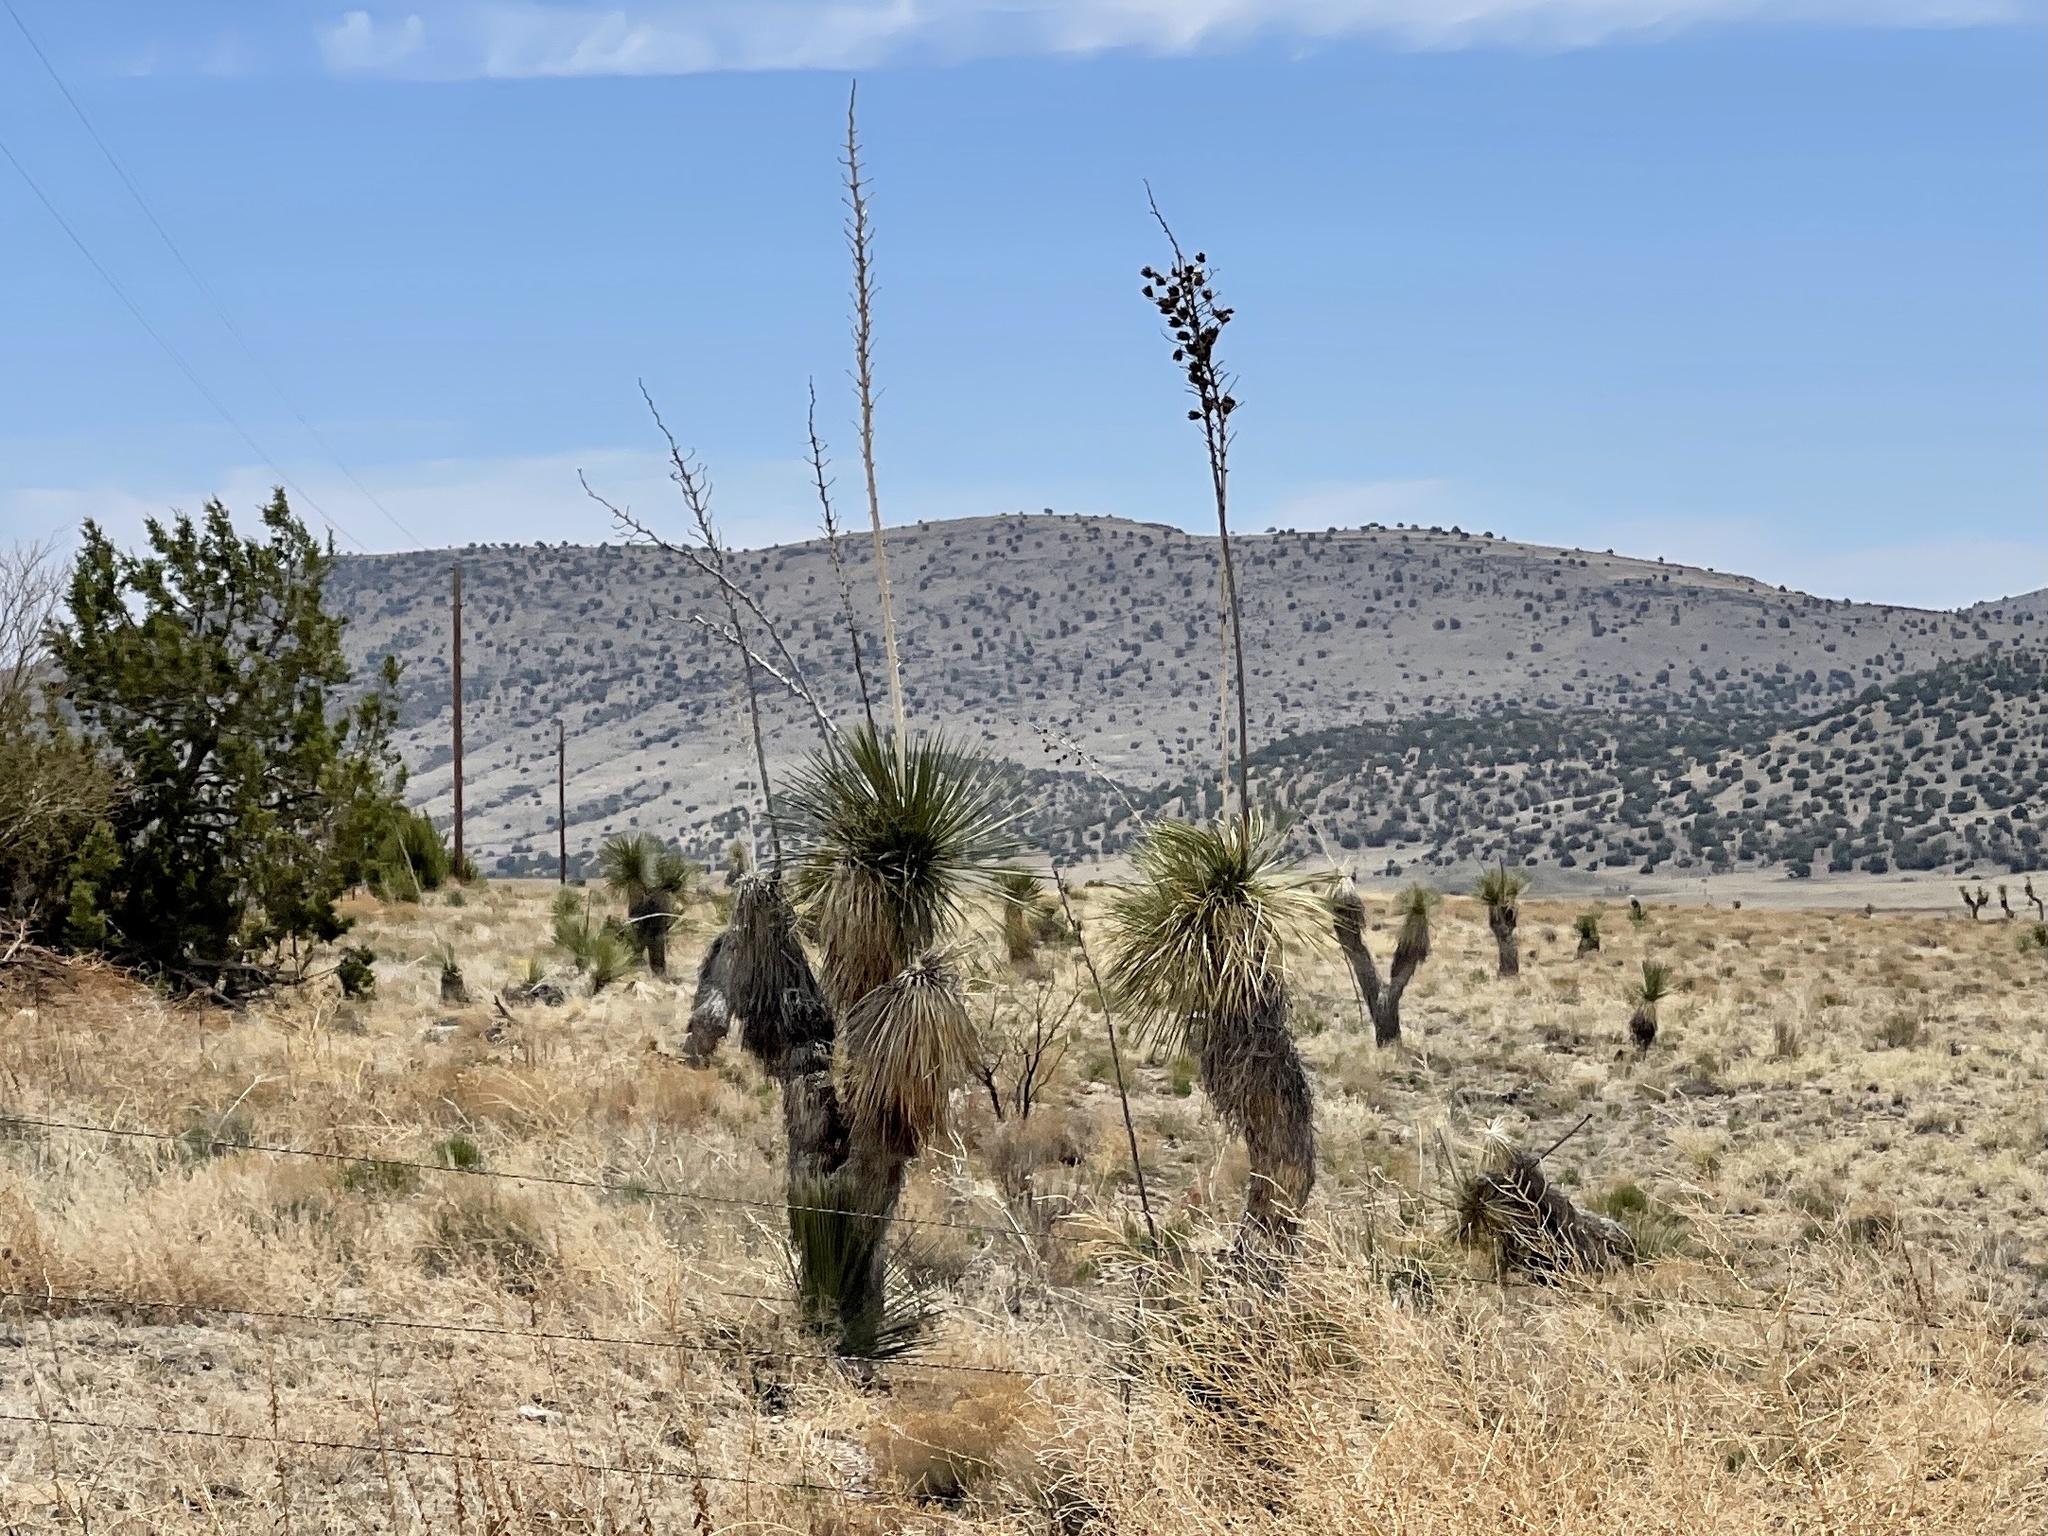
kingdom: Plantae
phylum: Tracheophyta
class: Liliopsida
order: Asparagales
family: Asparagaceae
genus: Yucca
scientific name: Yucca elata
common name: Palmella
